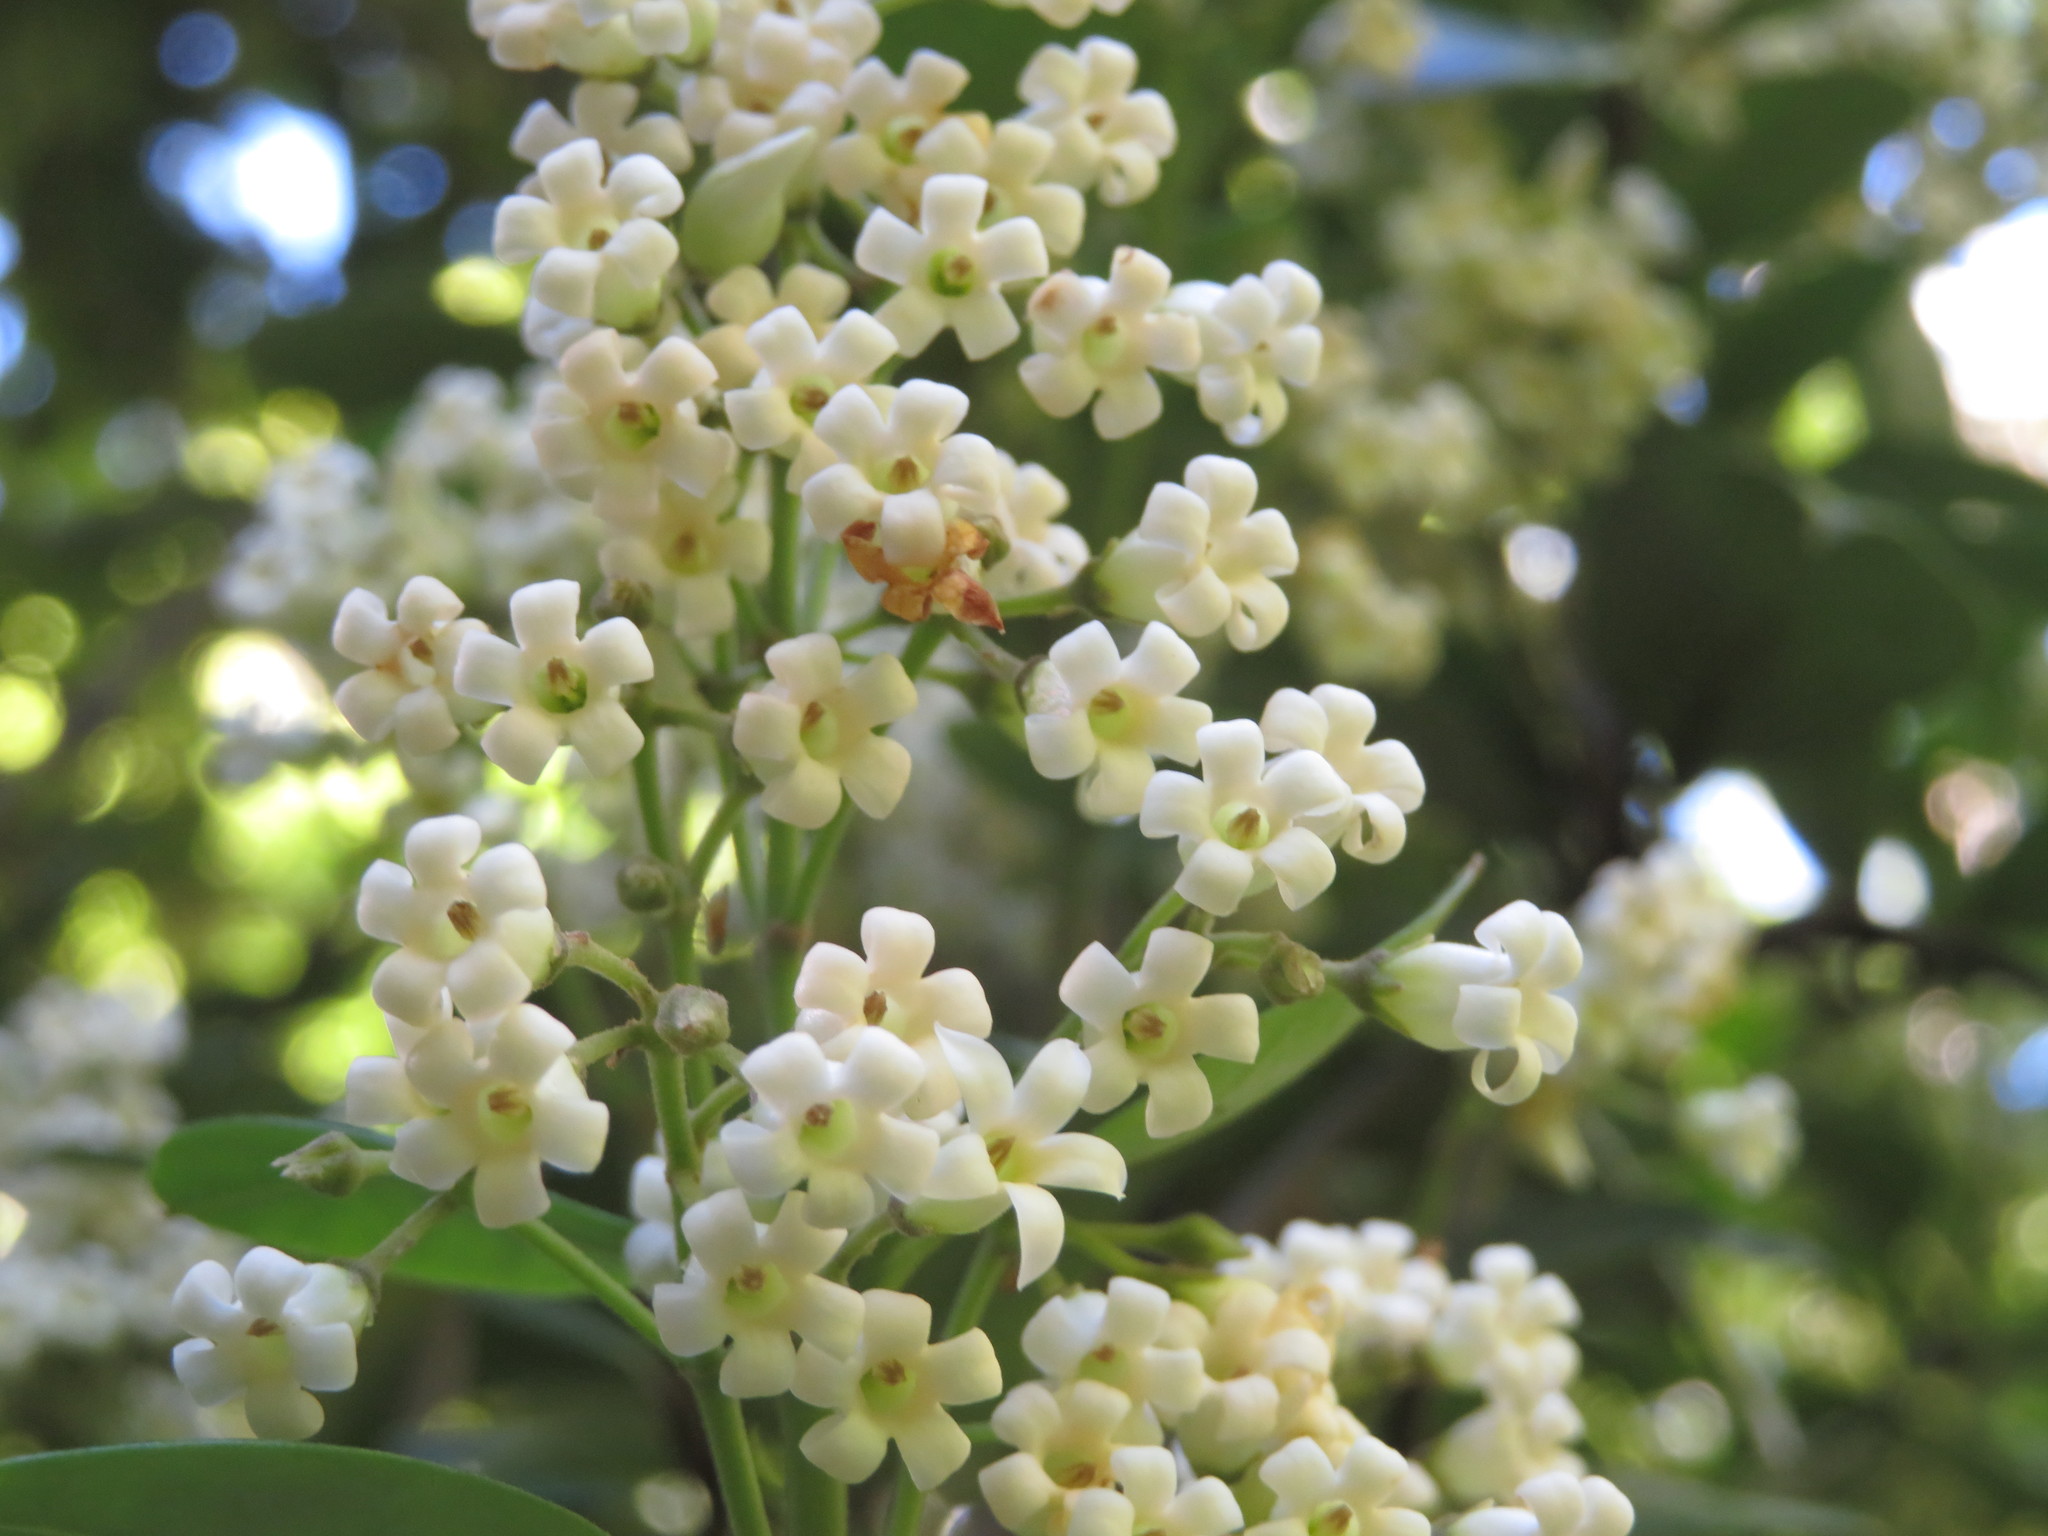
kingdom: Plantae
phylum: Tracheophyta
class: Magnoliopsida
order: Gentianales
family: Apocynaceae
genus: Parsonsia
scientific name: Parsonsia heterophylla
